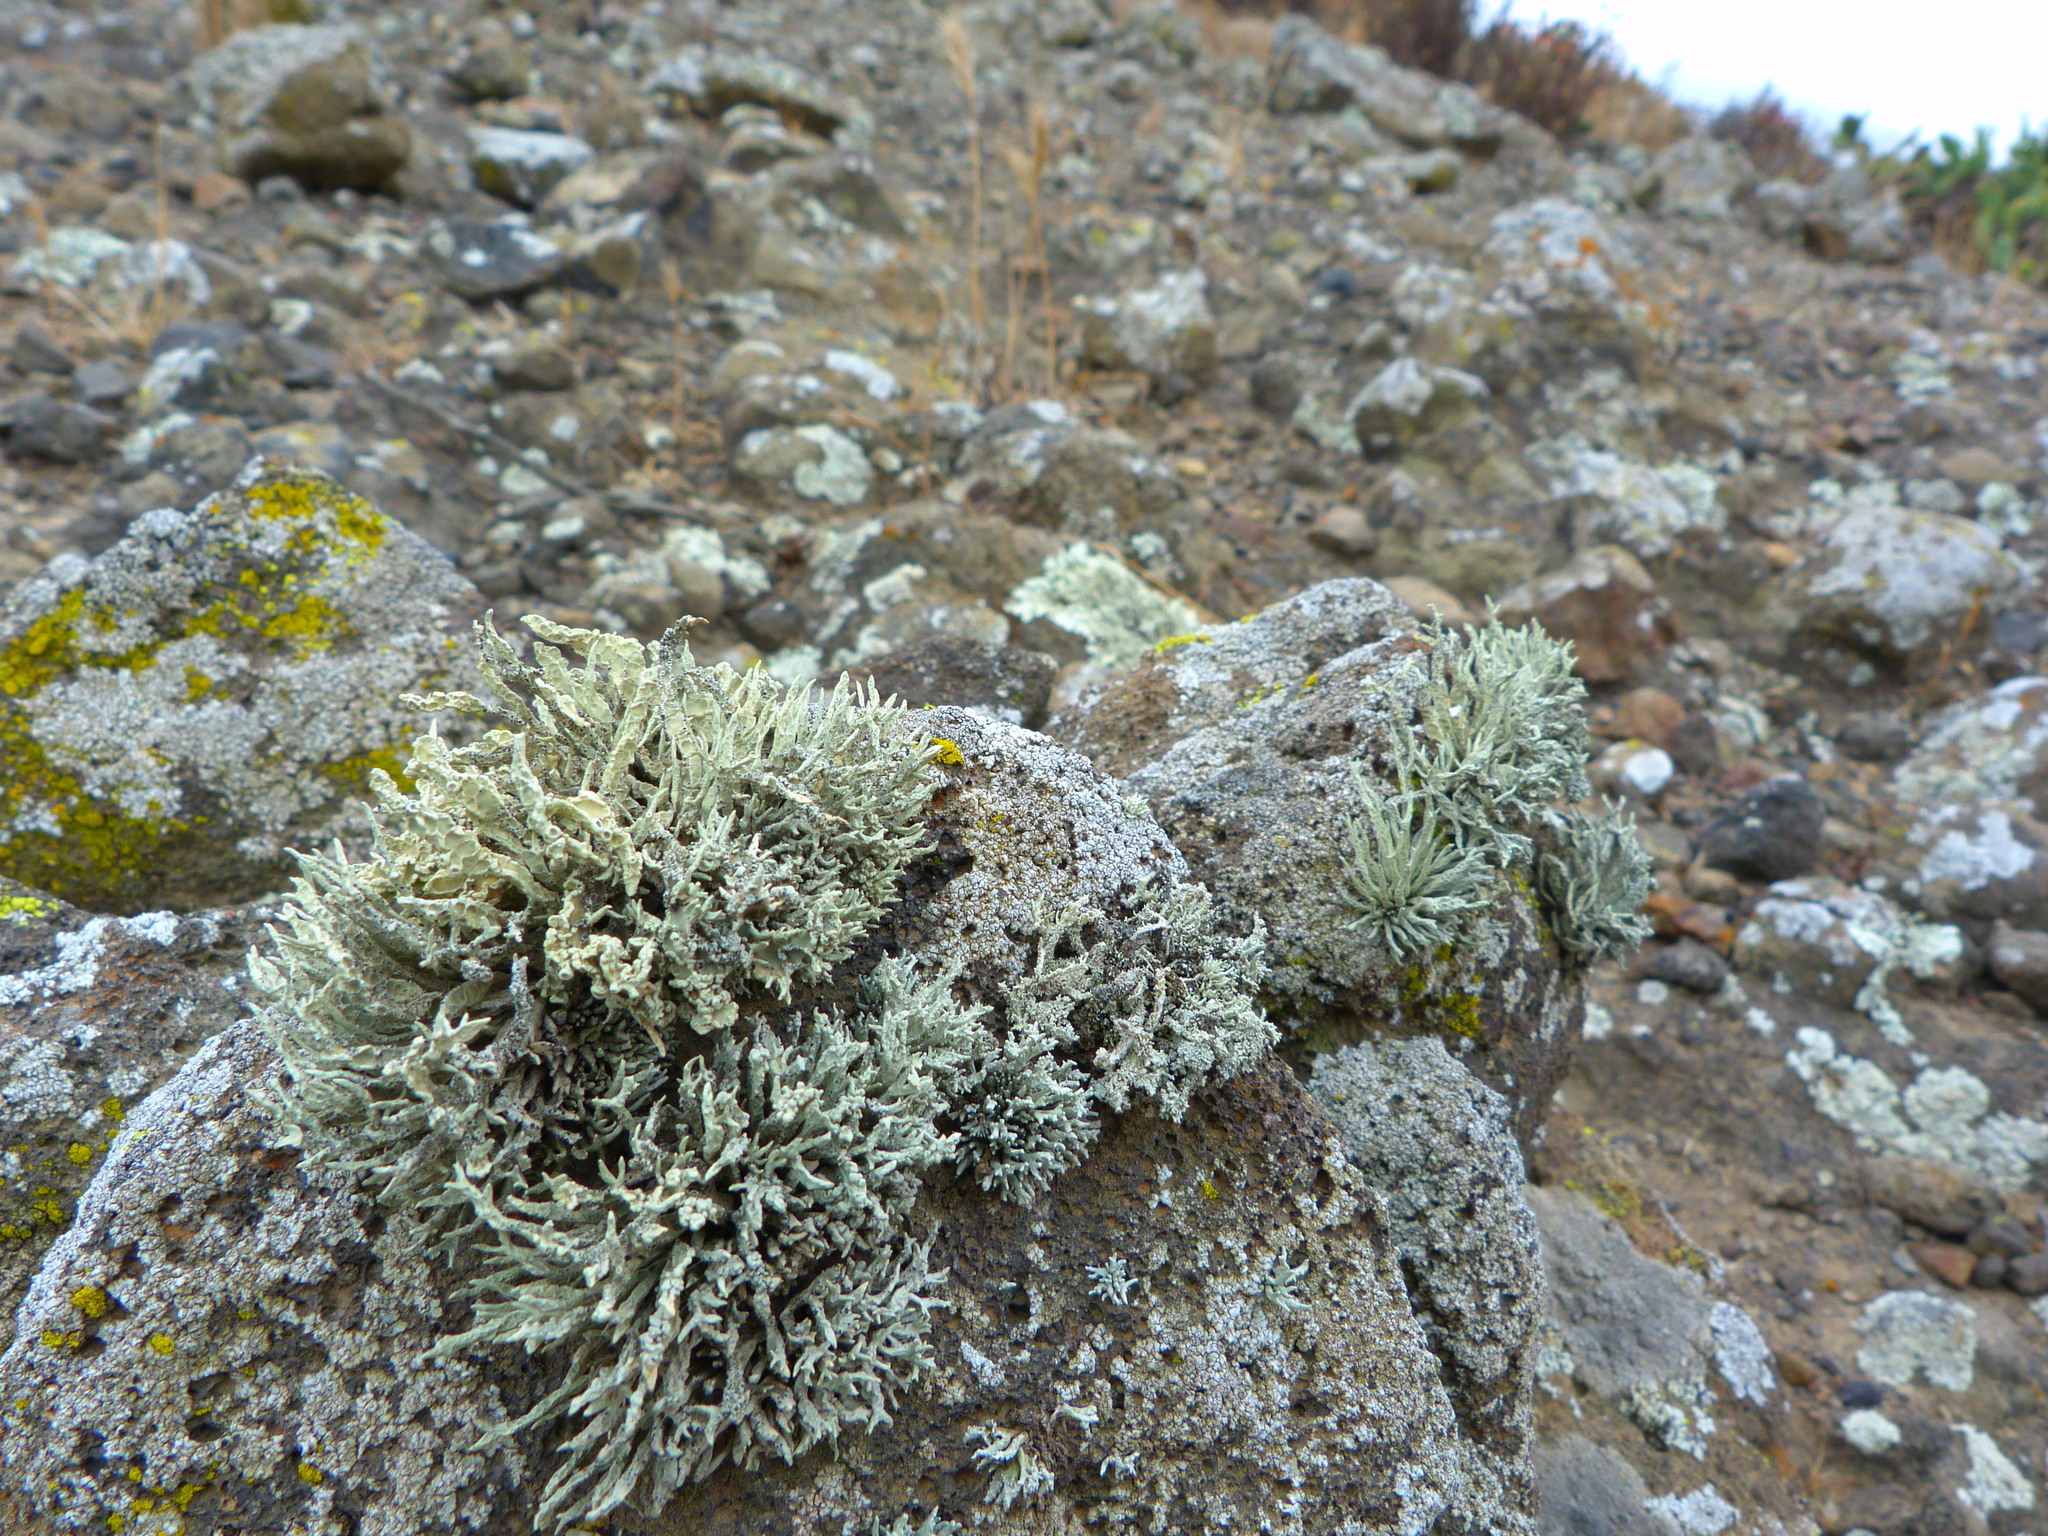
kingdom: Fungi
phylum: Ascomycota
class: Lecanoromycetes
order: Lecanorales
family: Ramalinaceae
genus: Niebla
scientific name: Niebla homalea
